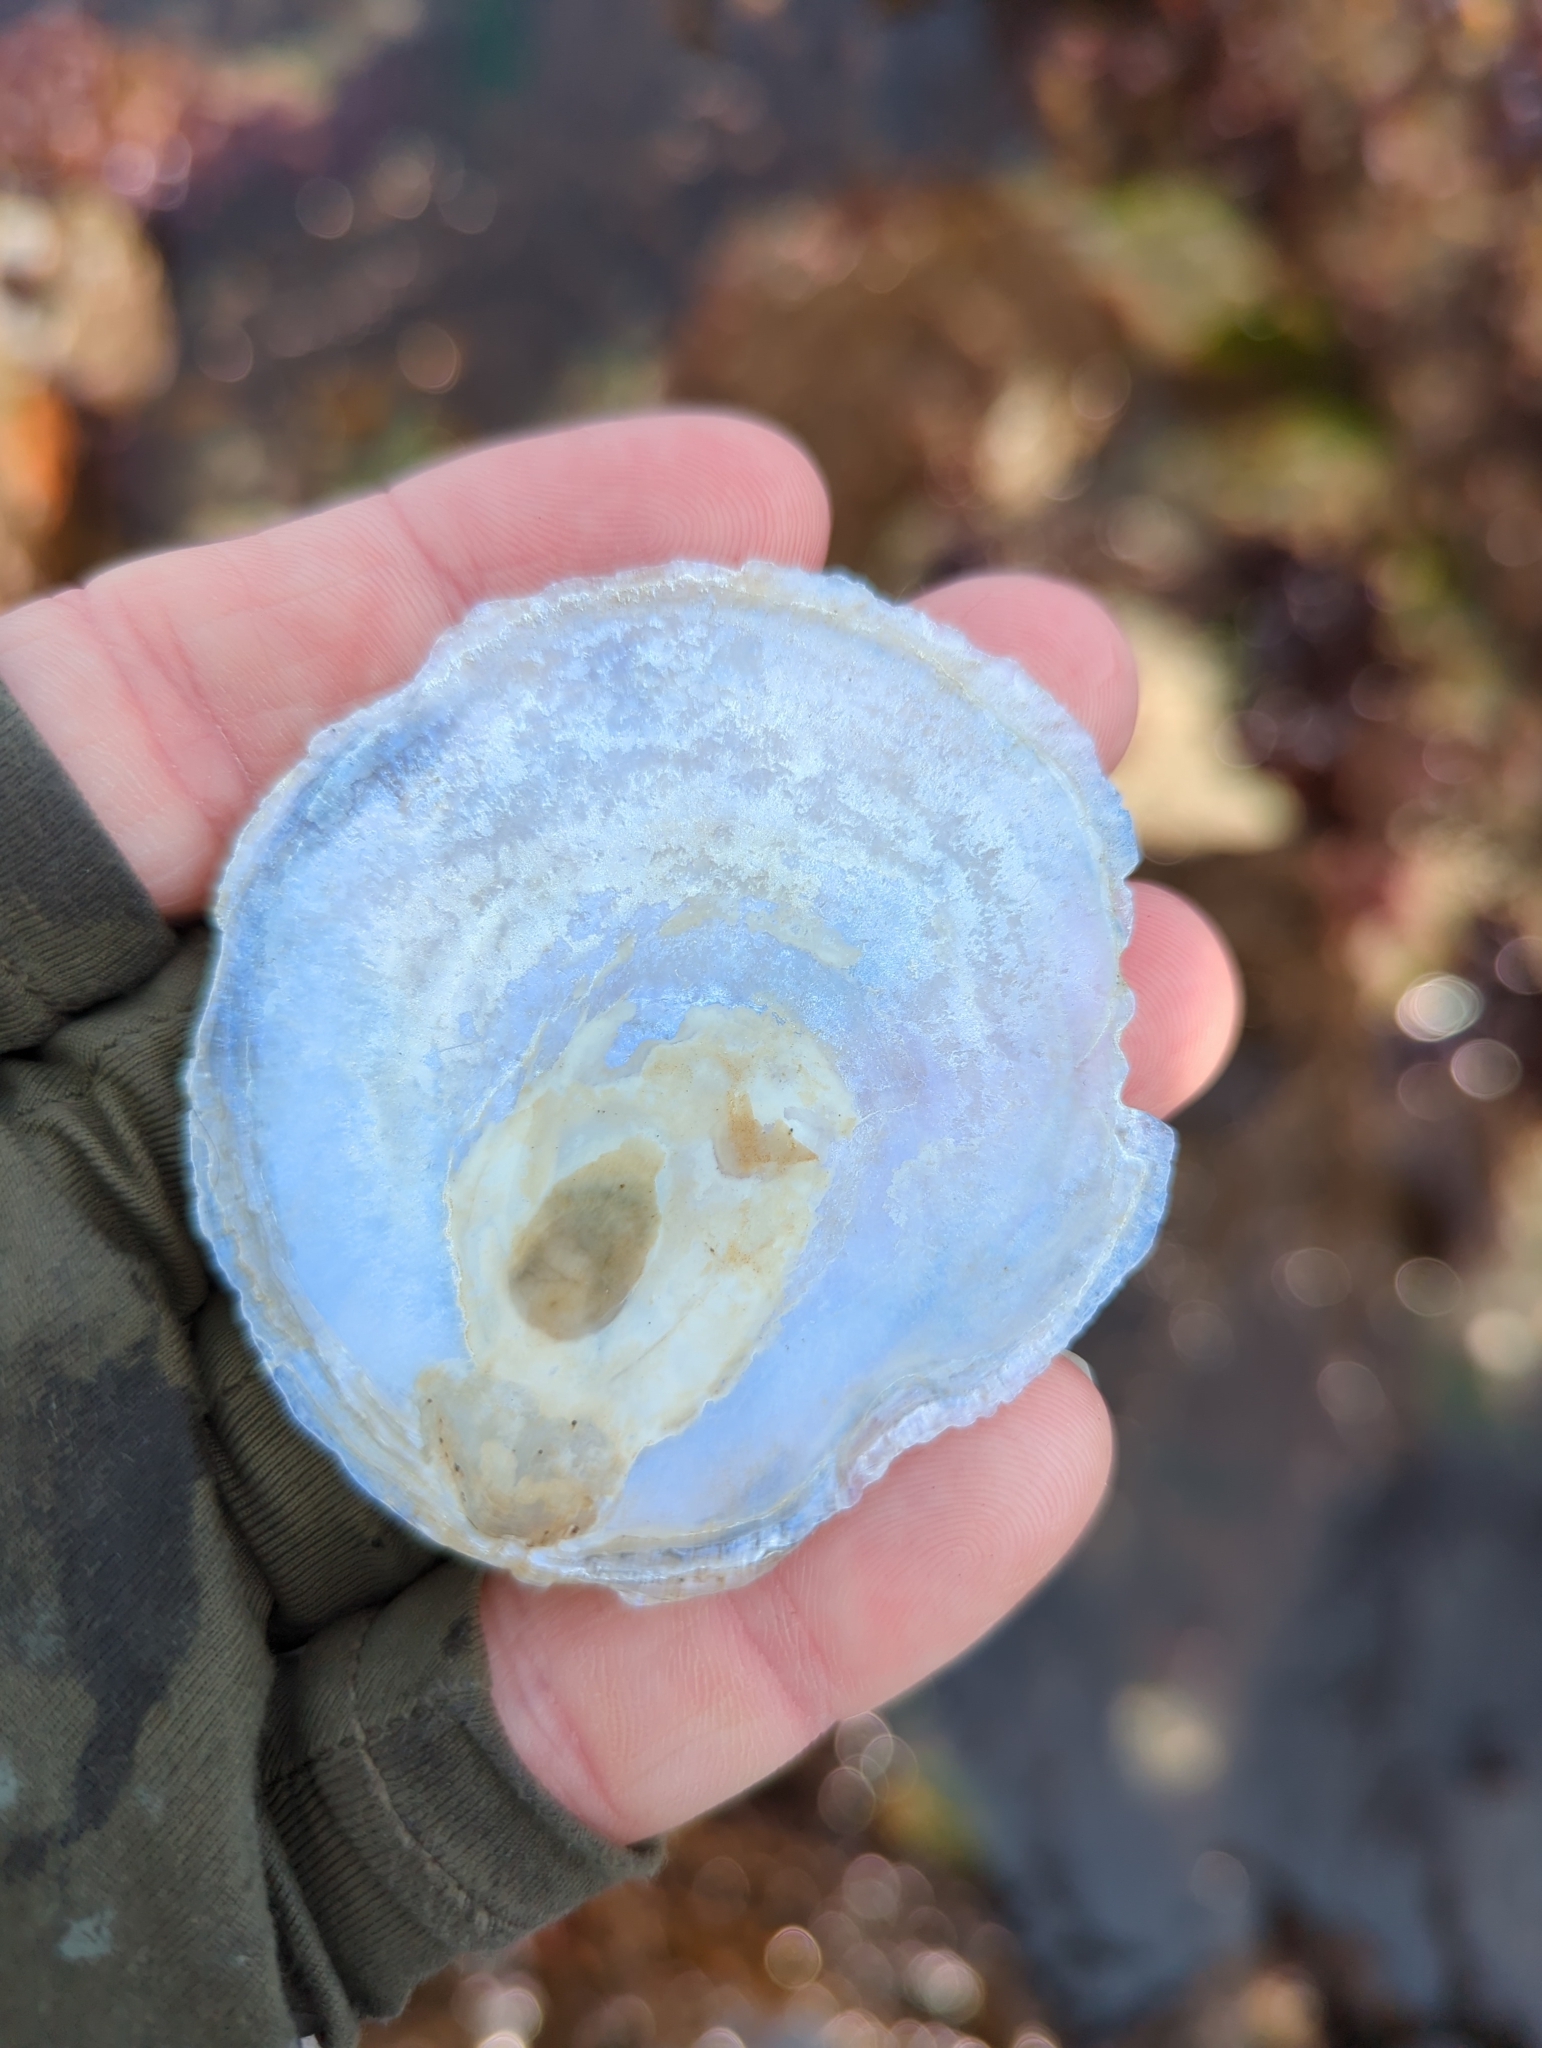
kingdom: Animalia
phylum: Mollusca
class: Bivalvia
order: Pectinida
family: Anomiidae
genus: Pododesmus
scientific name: Pododesmus macrochisma
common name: Alaska jingle
